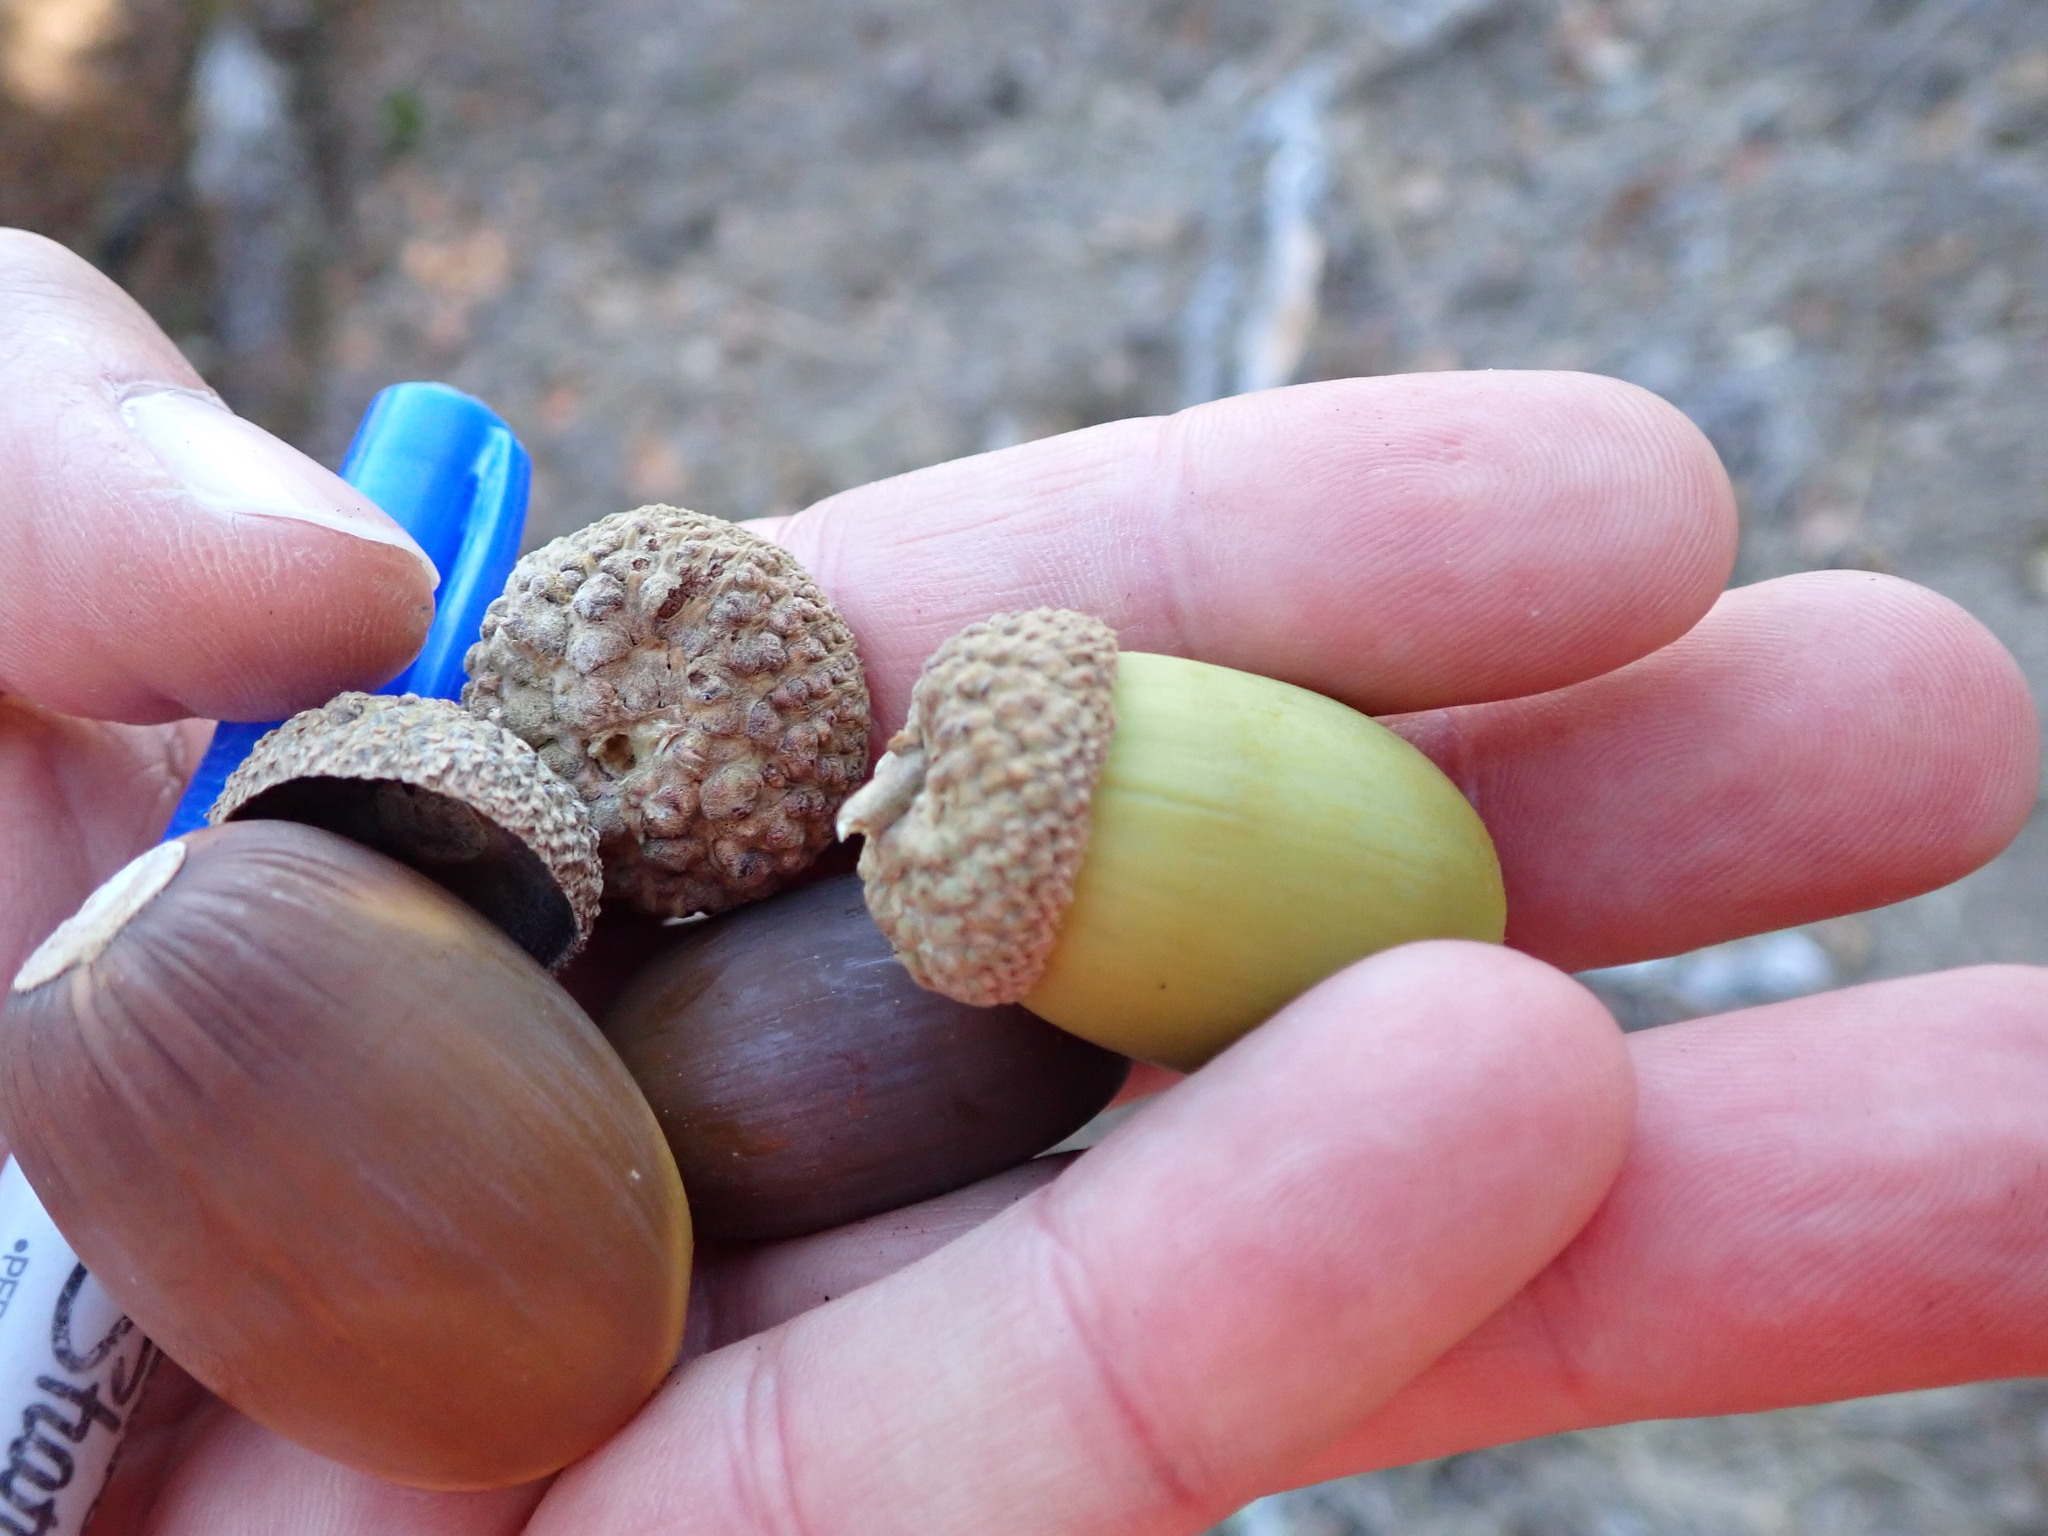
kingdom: Plantae
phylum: Tracheophyta
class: Magnoliopsida
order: Fagales
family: Fagaceae
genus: Quercus
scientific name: Quercus garryana
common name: Garry oak
